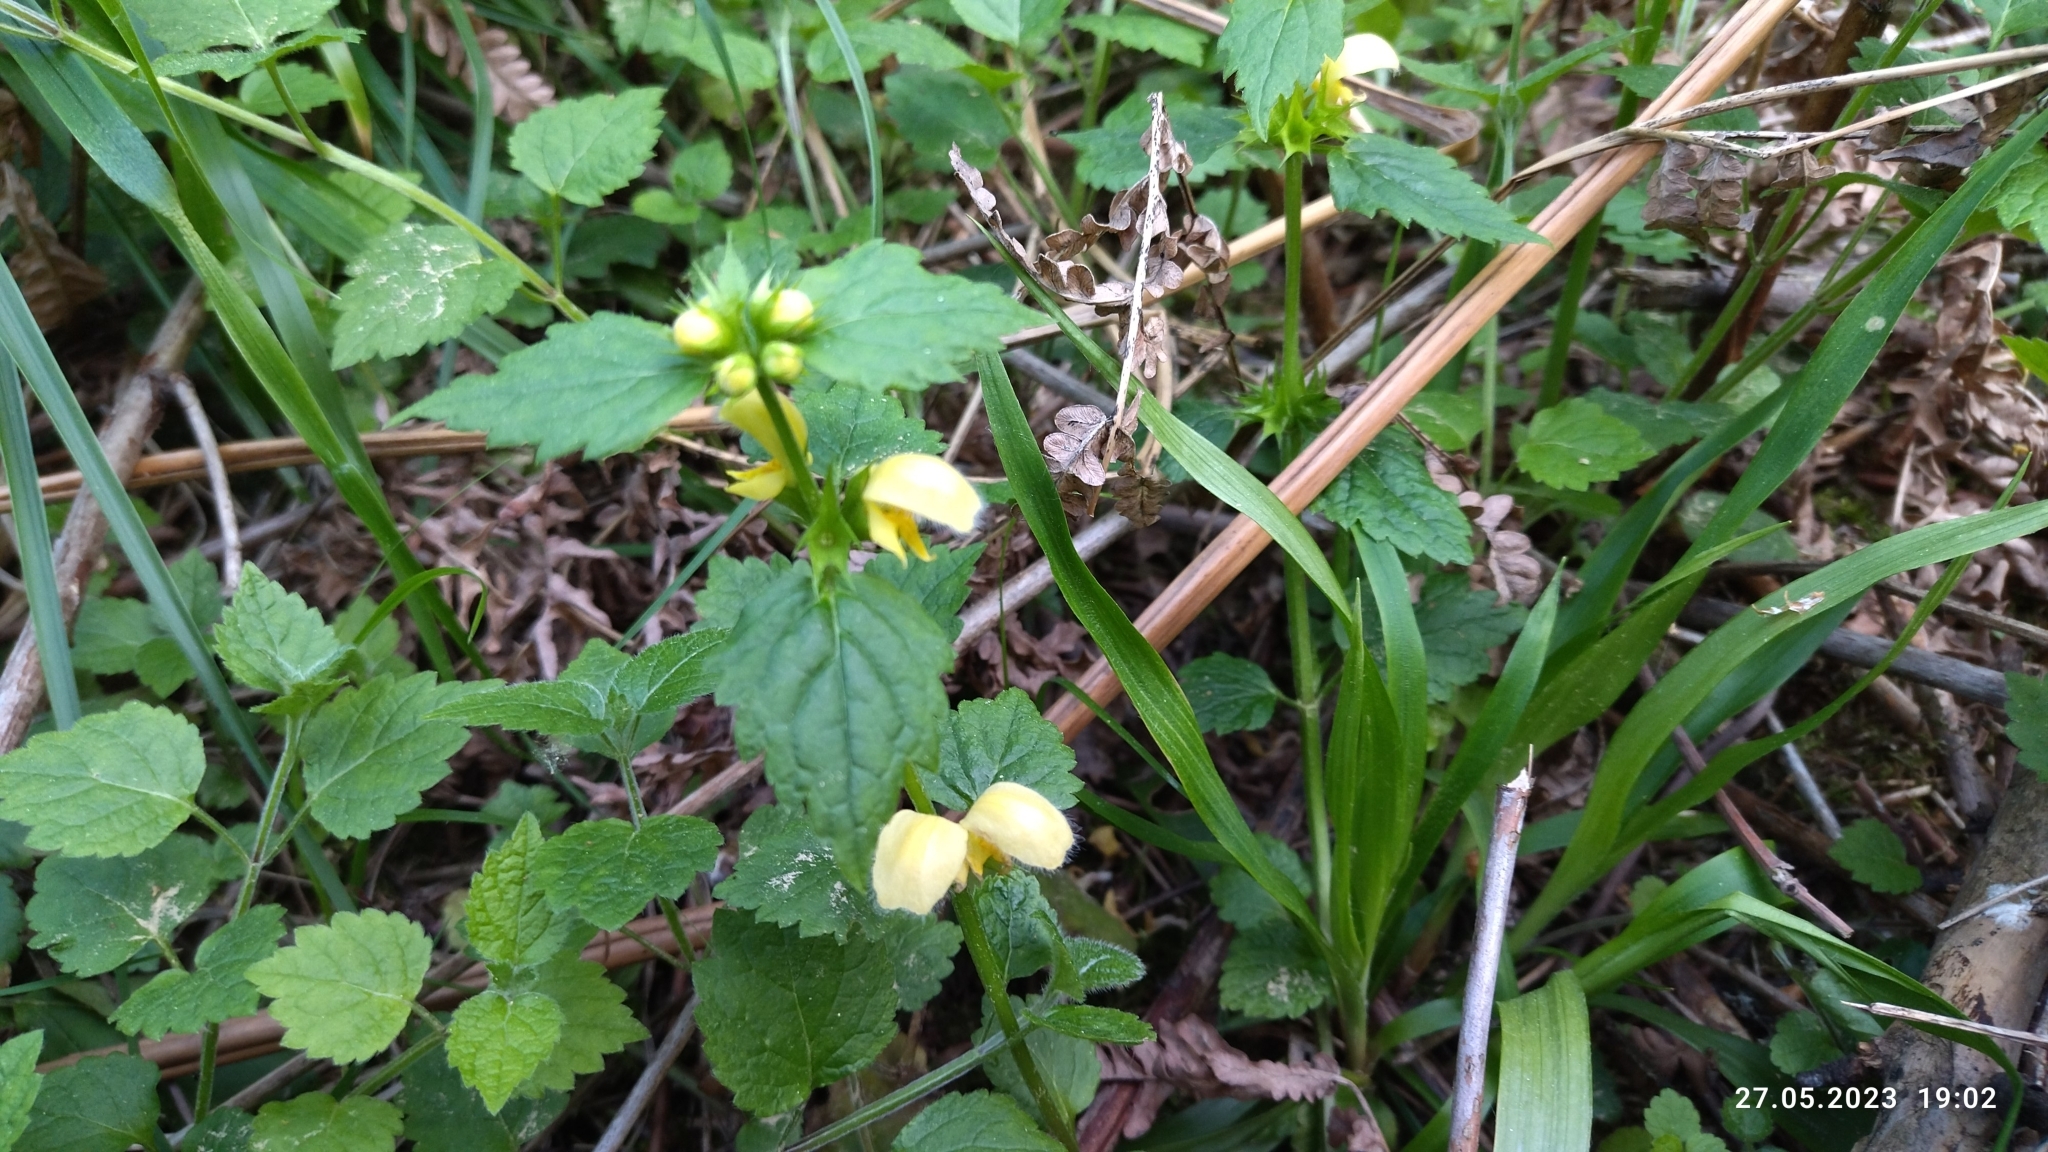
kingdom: Plantae
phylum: Tracheophyta
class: Magnoliopsida
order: Lamiales
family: Lamiaceae
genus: Lamium
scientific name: Lamium galeobdolon
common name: Yellow archangel
